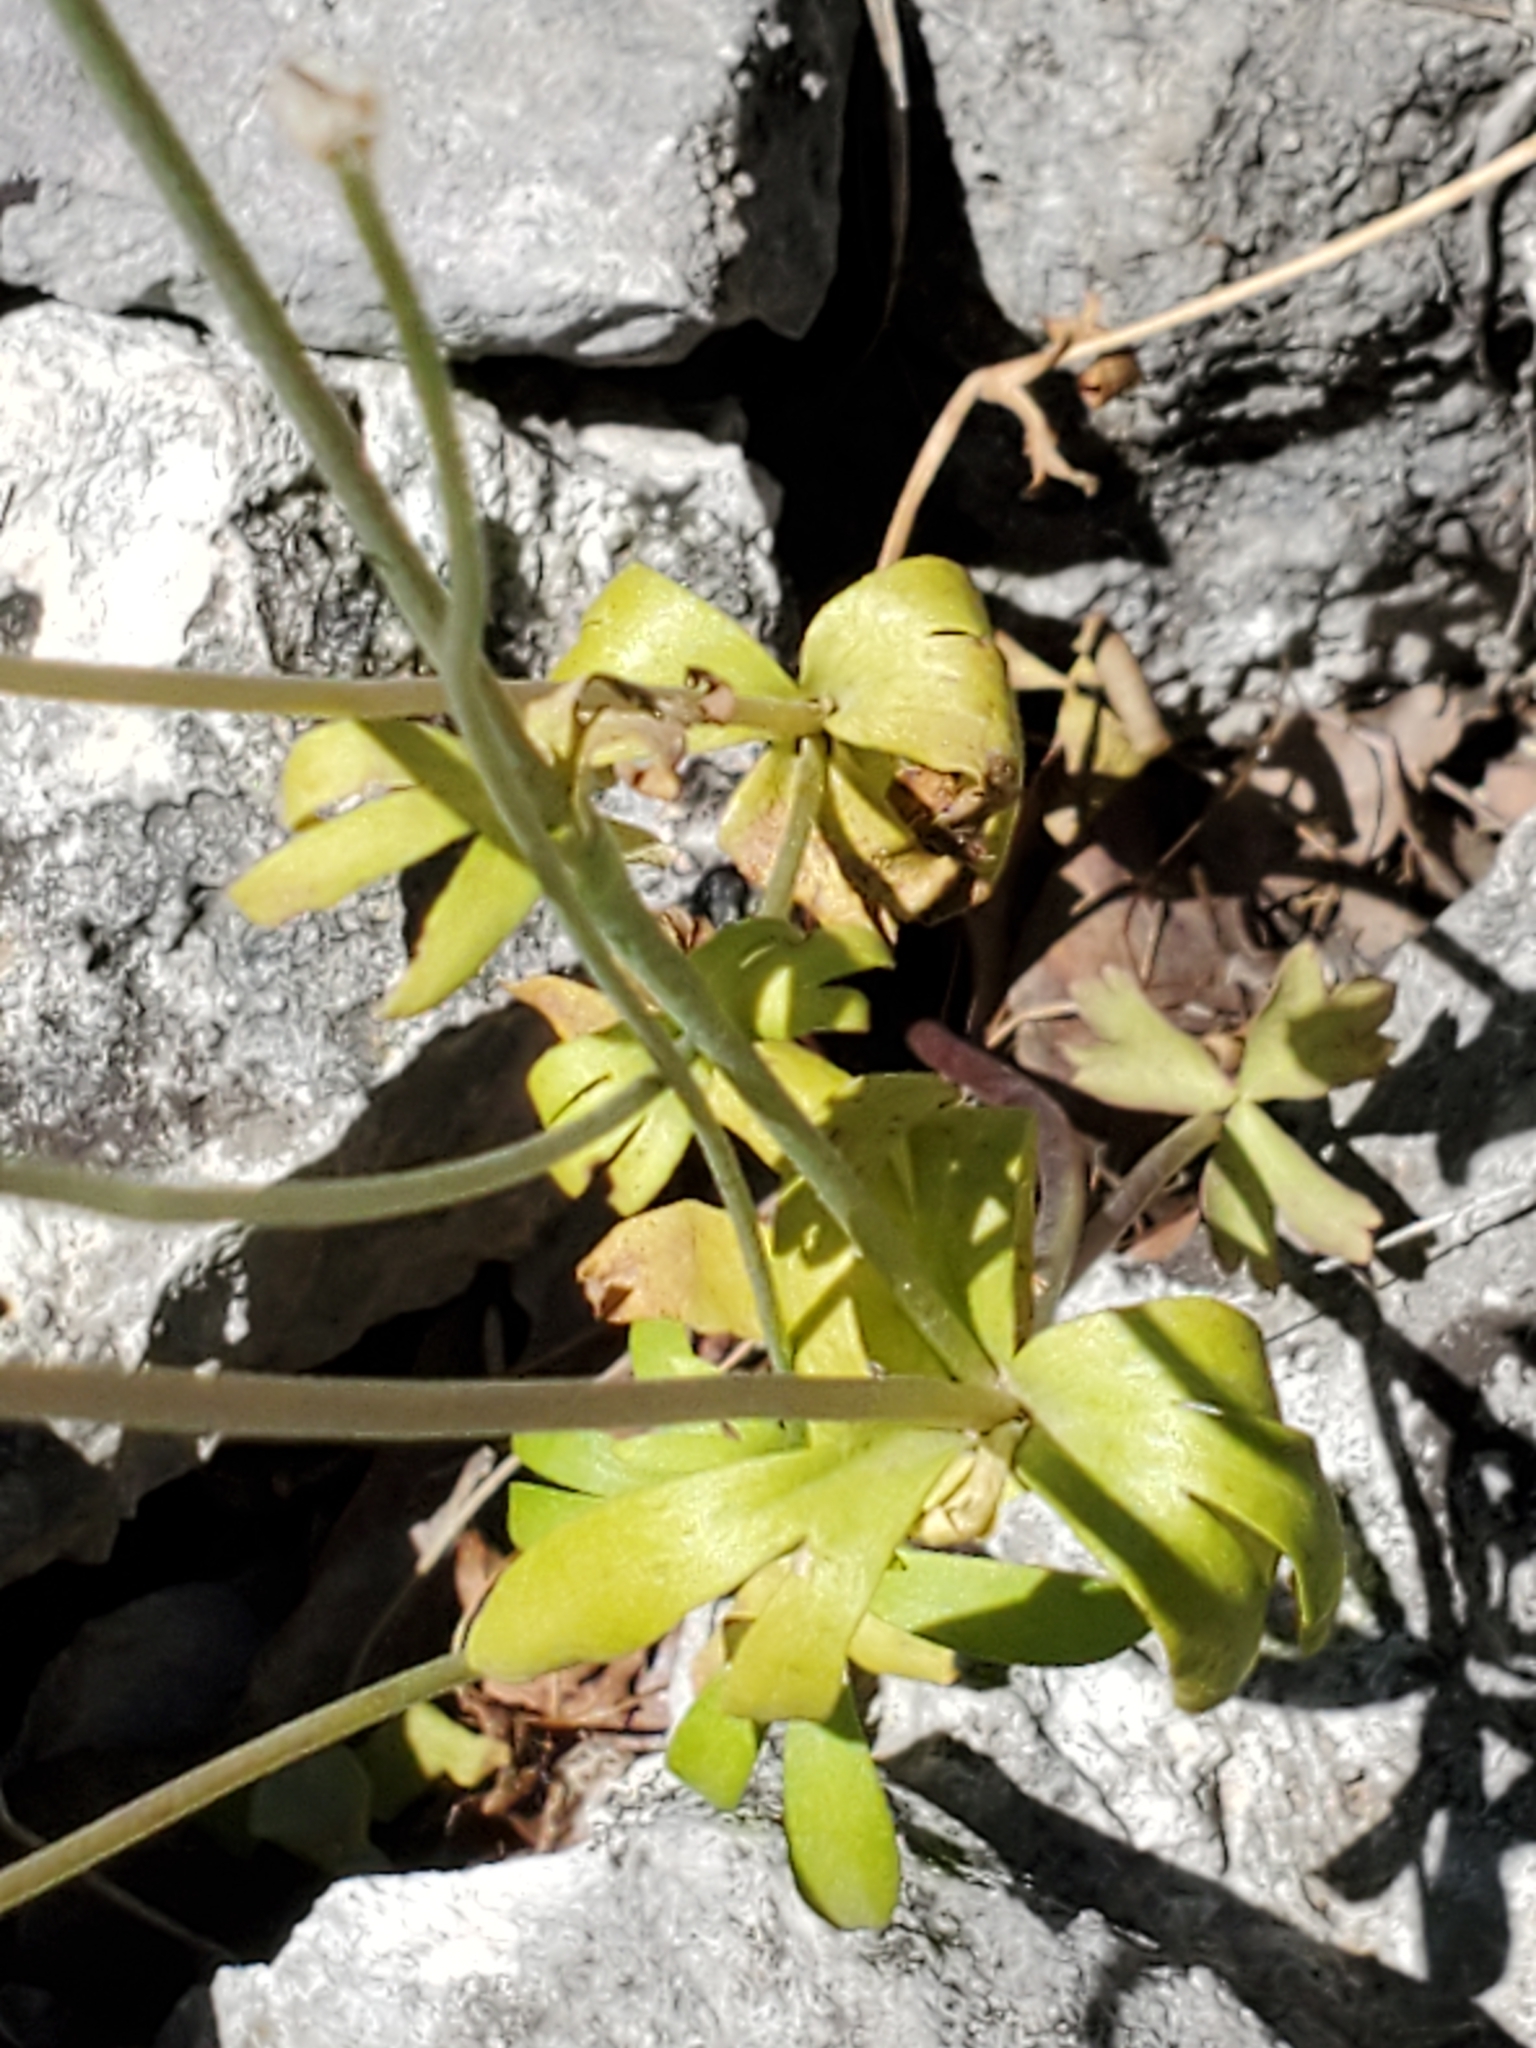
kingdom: Plantae
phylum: Tracheophyta
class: Magnoliopsida
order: Ranunculales
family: Ranunculaceae
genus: Anemone
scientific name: Anemone edwardsiana
